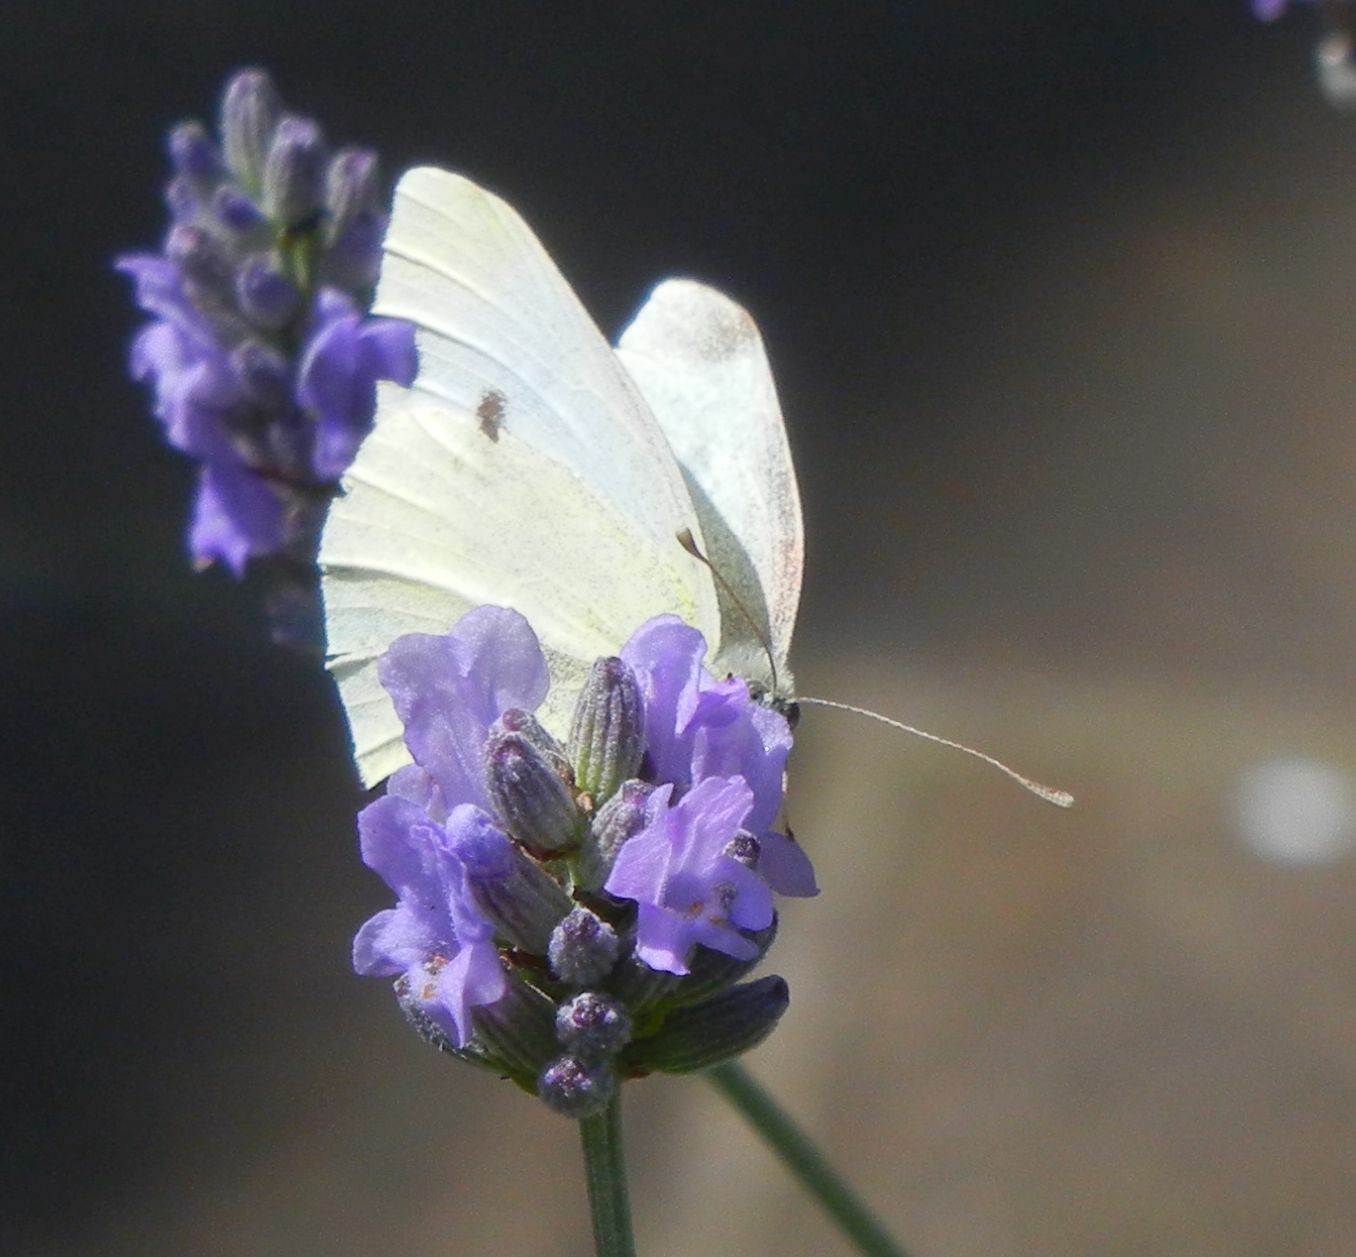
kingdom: Animalia
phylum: Arthropoda
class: Insecta
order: Lepidoptera
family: Pieridae
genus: Pieris
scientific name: Pieris rapae
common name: Small white
